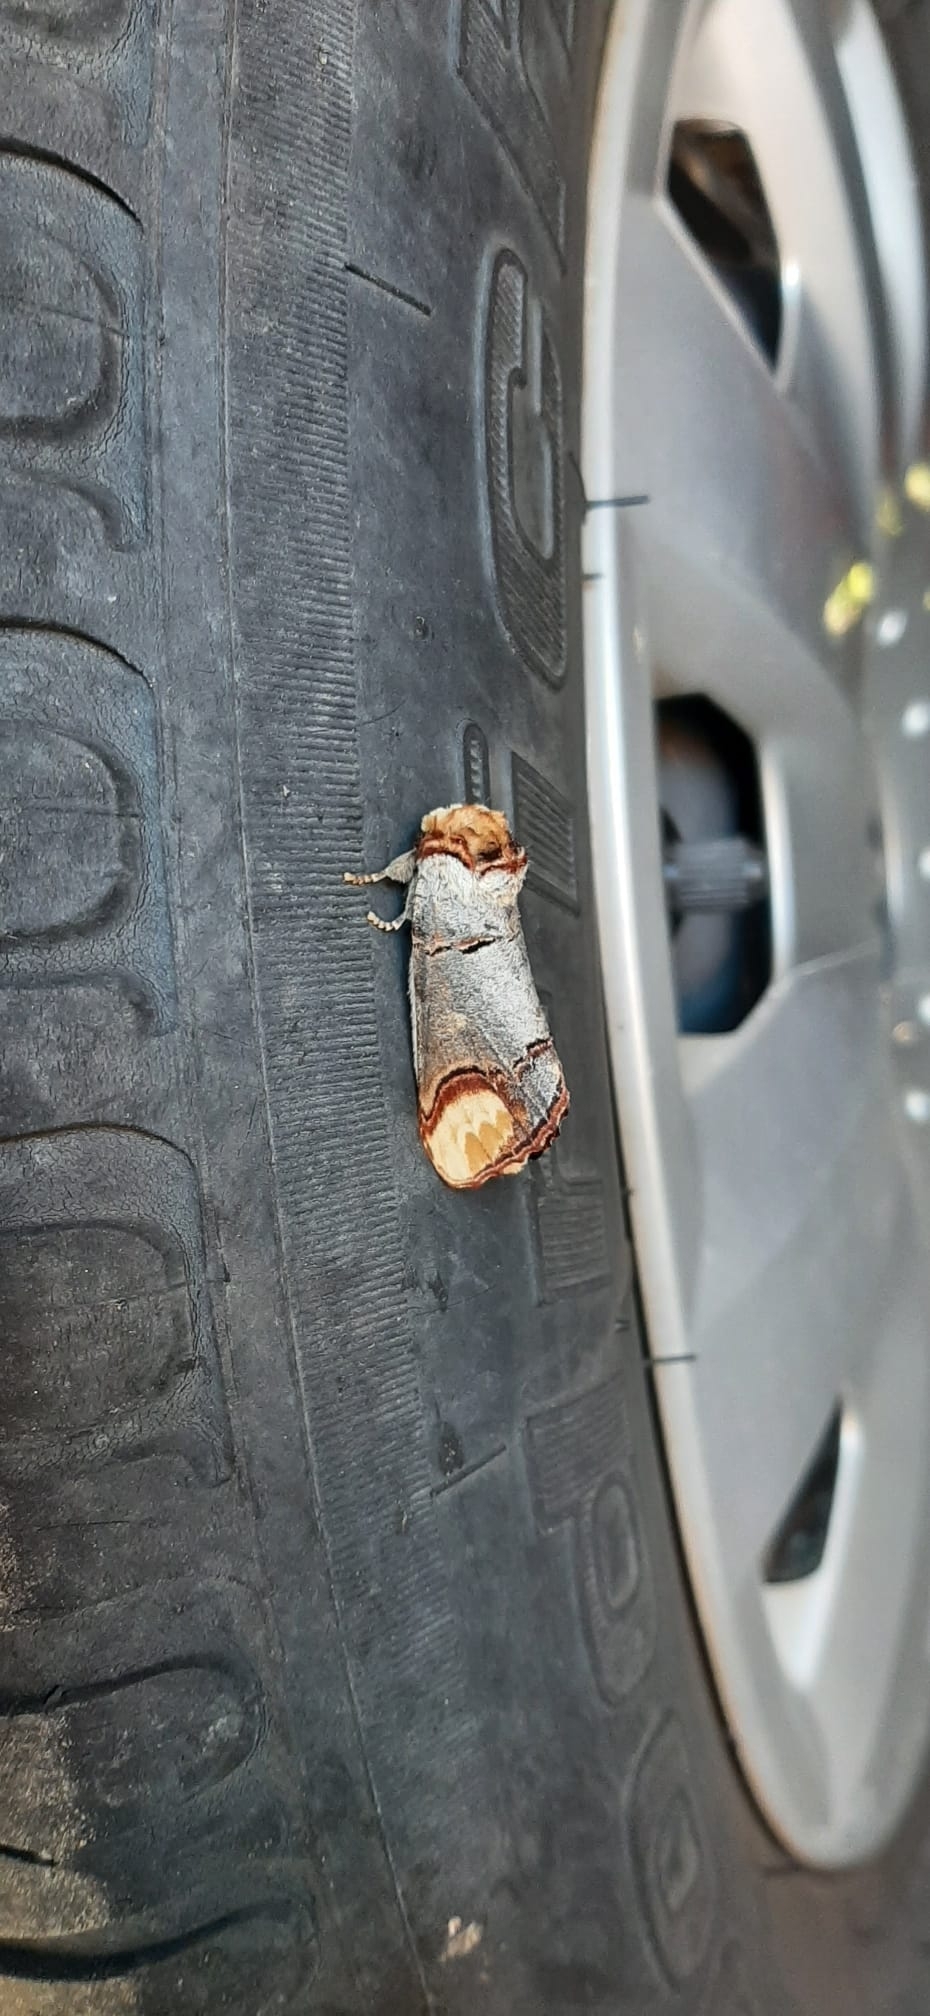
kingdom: Animalia
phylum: Arthropoda
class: Insecta
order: Lepidoptera
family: Notodontidae
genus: Phalera
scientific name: Phalera bucephala
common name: Buff-tip
